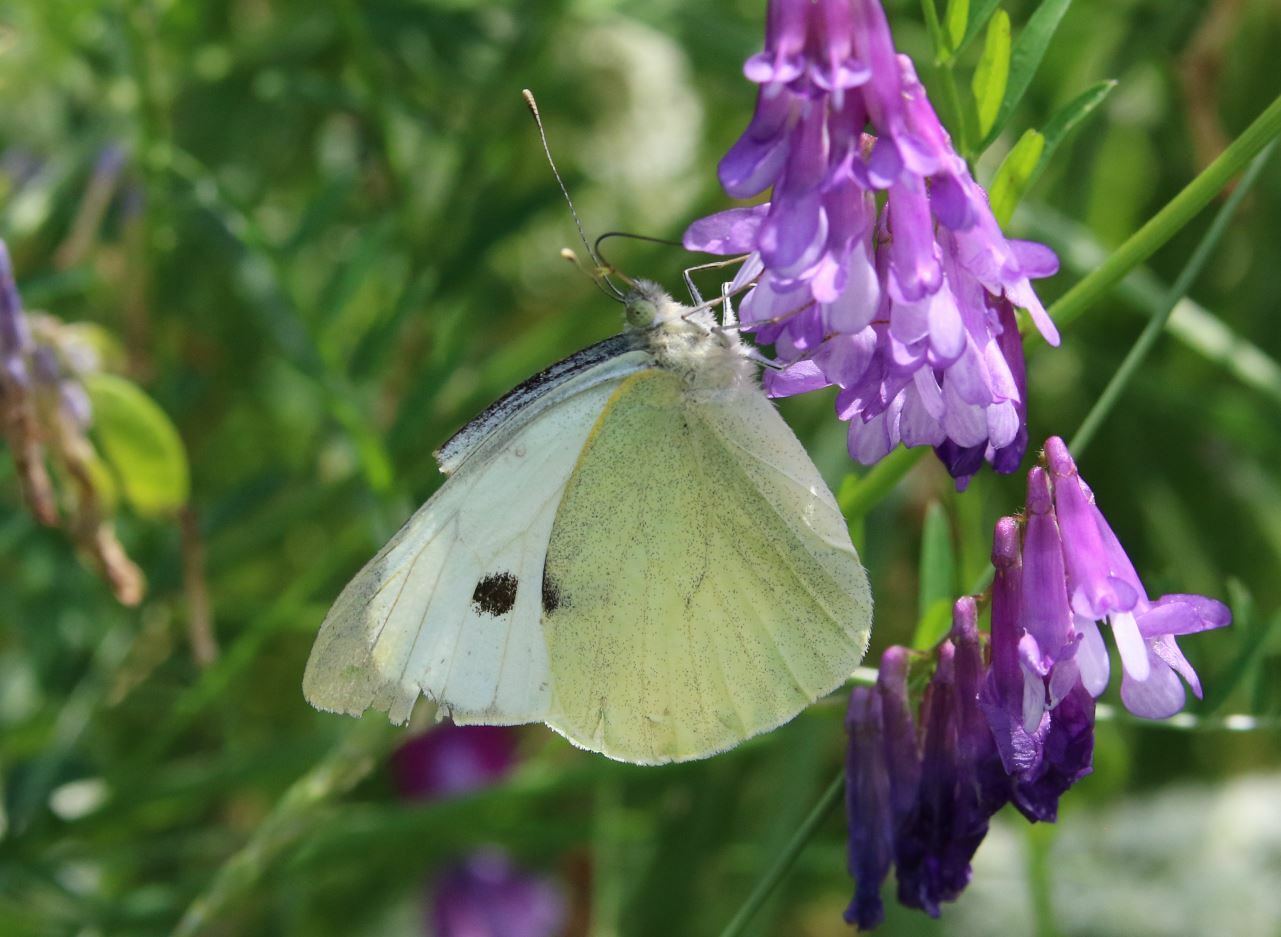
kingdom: Animalia
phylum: Arthropoda
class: Insecta
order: Lepidoptera
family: Pieridae
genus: Pieris
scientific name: Pieris brassicae
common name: Large white
